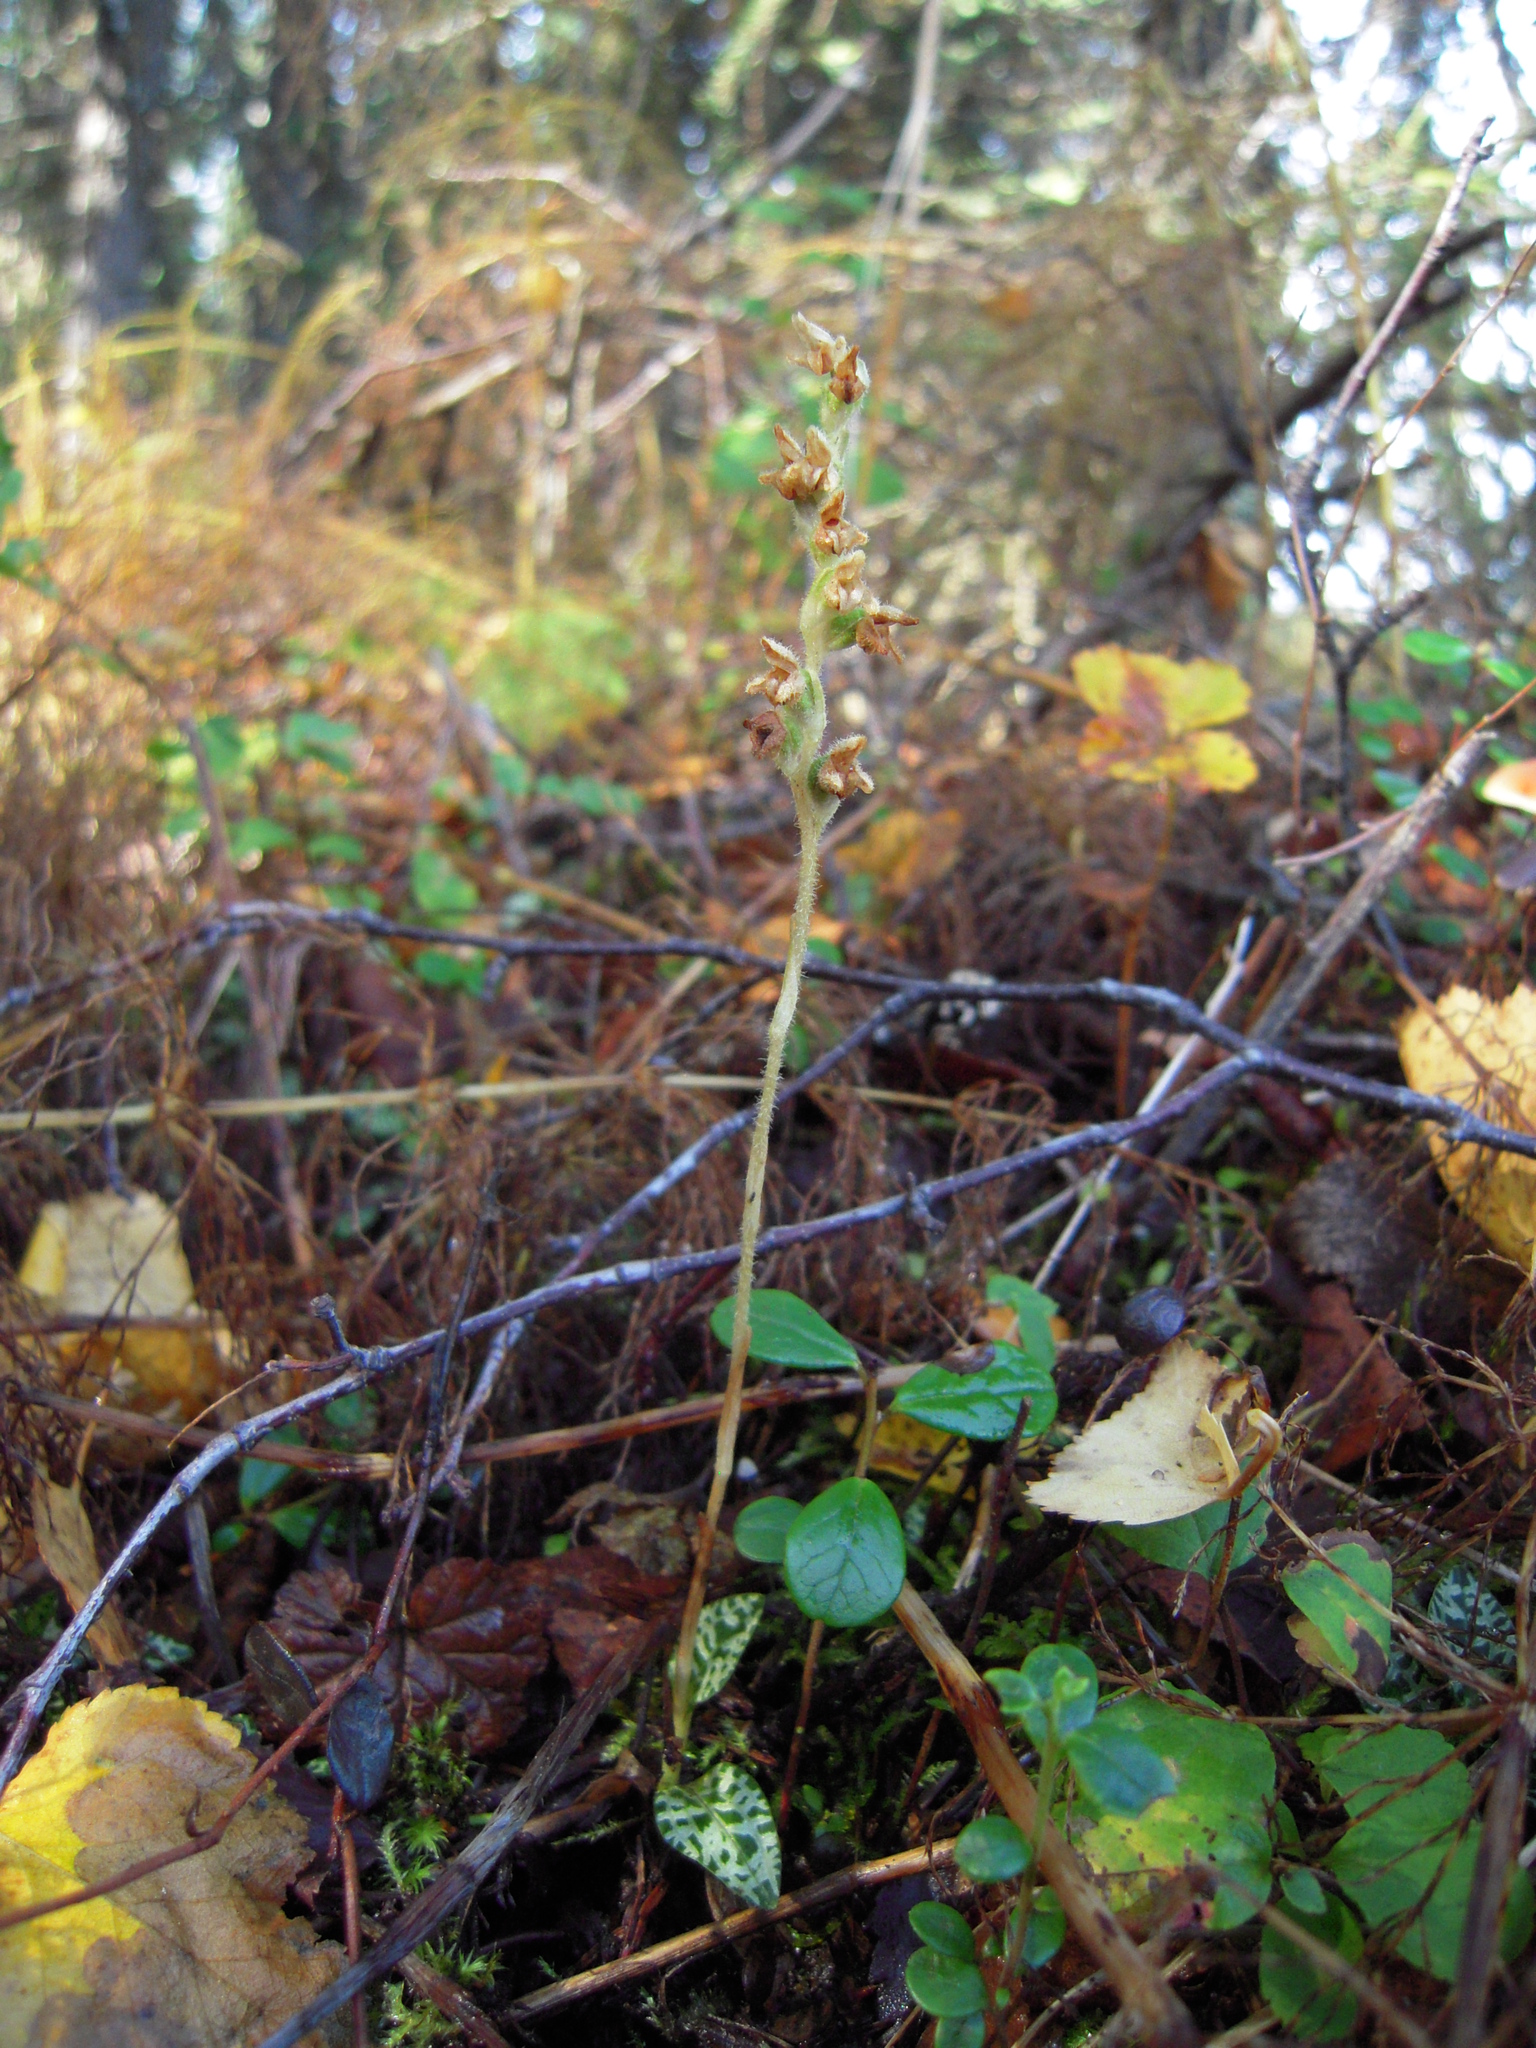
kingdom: Plantae
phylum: Tracheophyta
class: Liliopsida
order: Asparagales
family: Orchidaceae
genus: Goodyera
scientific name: Goodyera repens
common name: Creeping lady's-tresses
